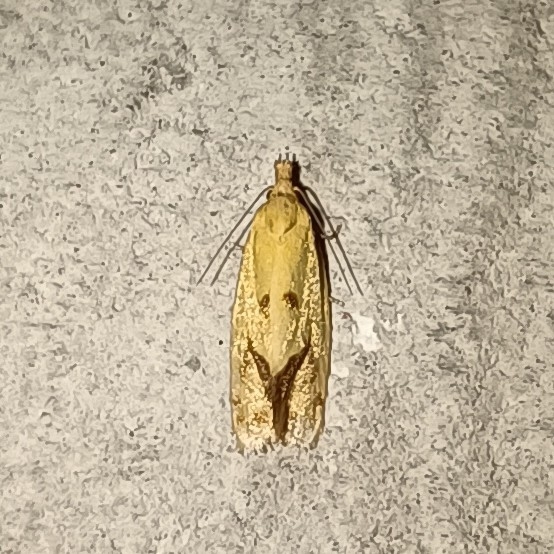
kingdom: Animalia
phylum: Arthropoda
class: Insecta
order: Lepidoptera
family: Tortricidae
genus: Agapeta
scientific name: Agapeta hamana
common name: Common yellow conch
